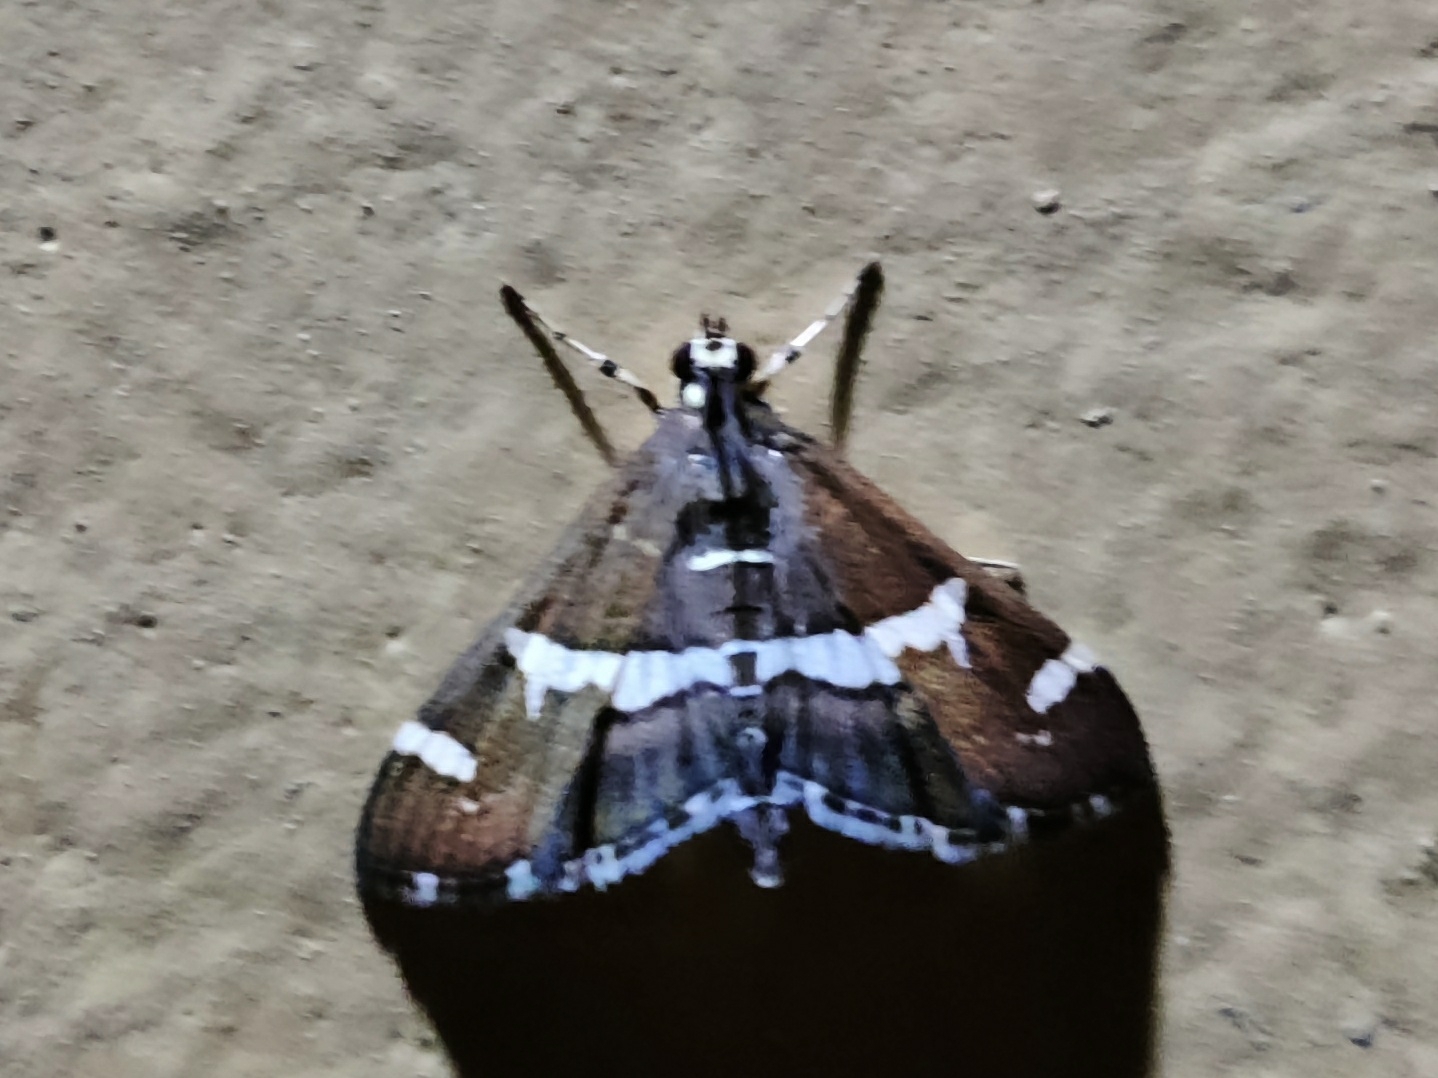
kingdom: Animalia
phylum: Arthropoda
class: Insecta
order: Lepidoptera
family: Crambidae
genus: Spoladea
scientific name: Spoladea recurvalis
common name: Beet webworm moth
